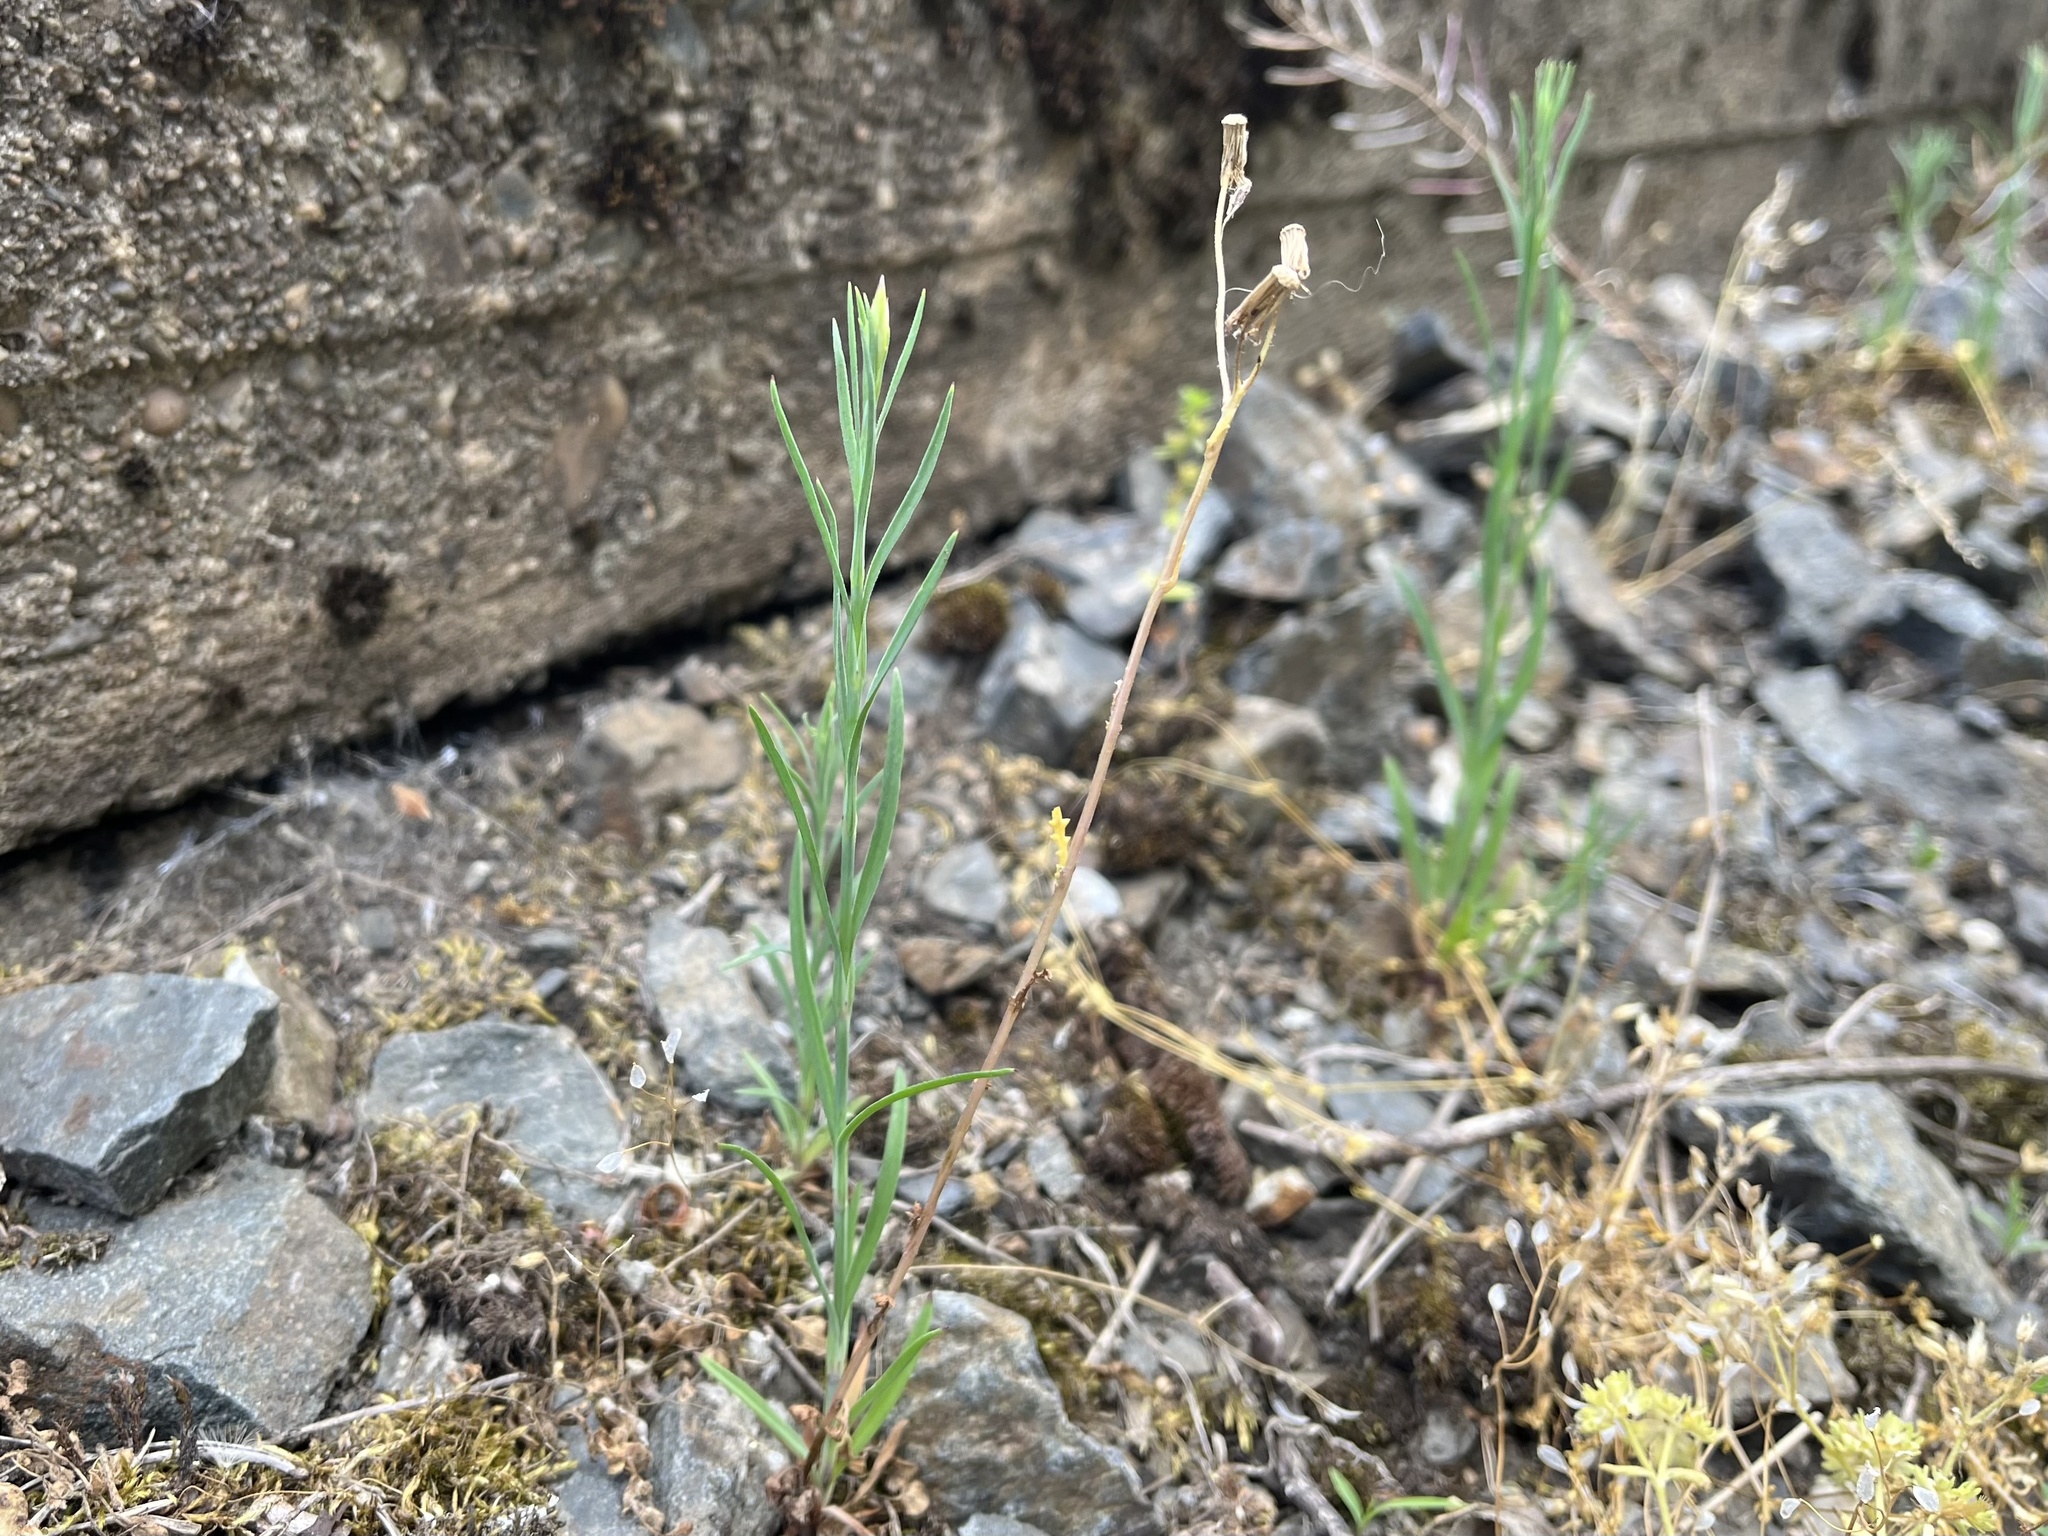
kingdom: Plantae
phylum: Tracheophyta
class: Magnoliopsida
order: Caryophyllales
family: Caryophyllaceae
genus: Petrorhagia
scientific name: Petrorhagia prolifera
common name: Proliferous pink
